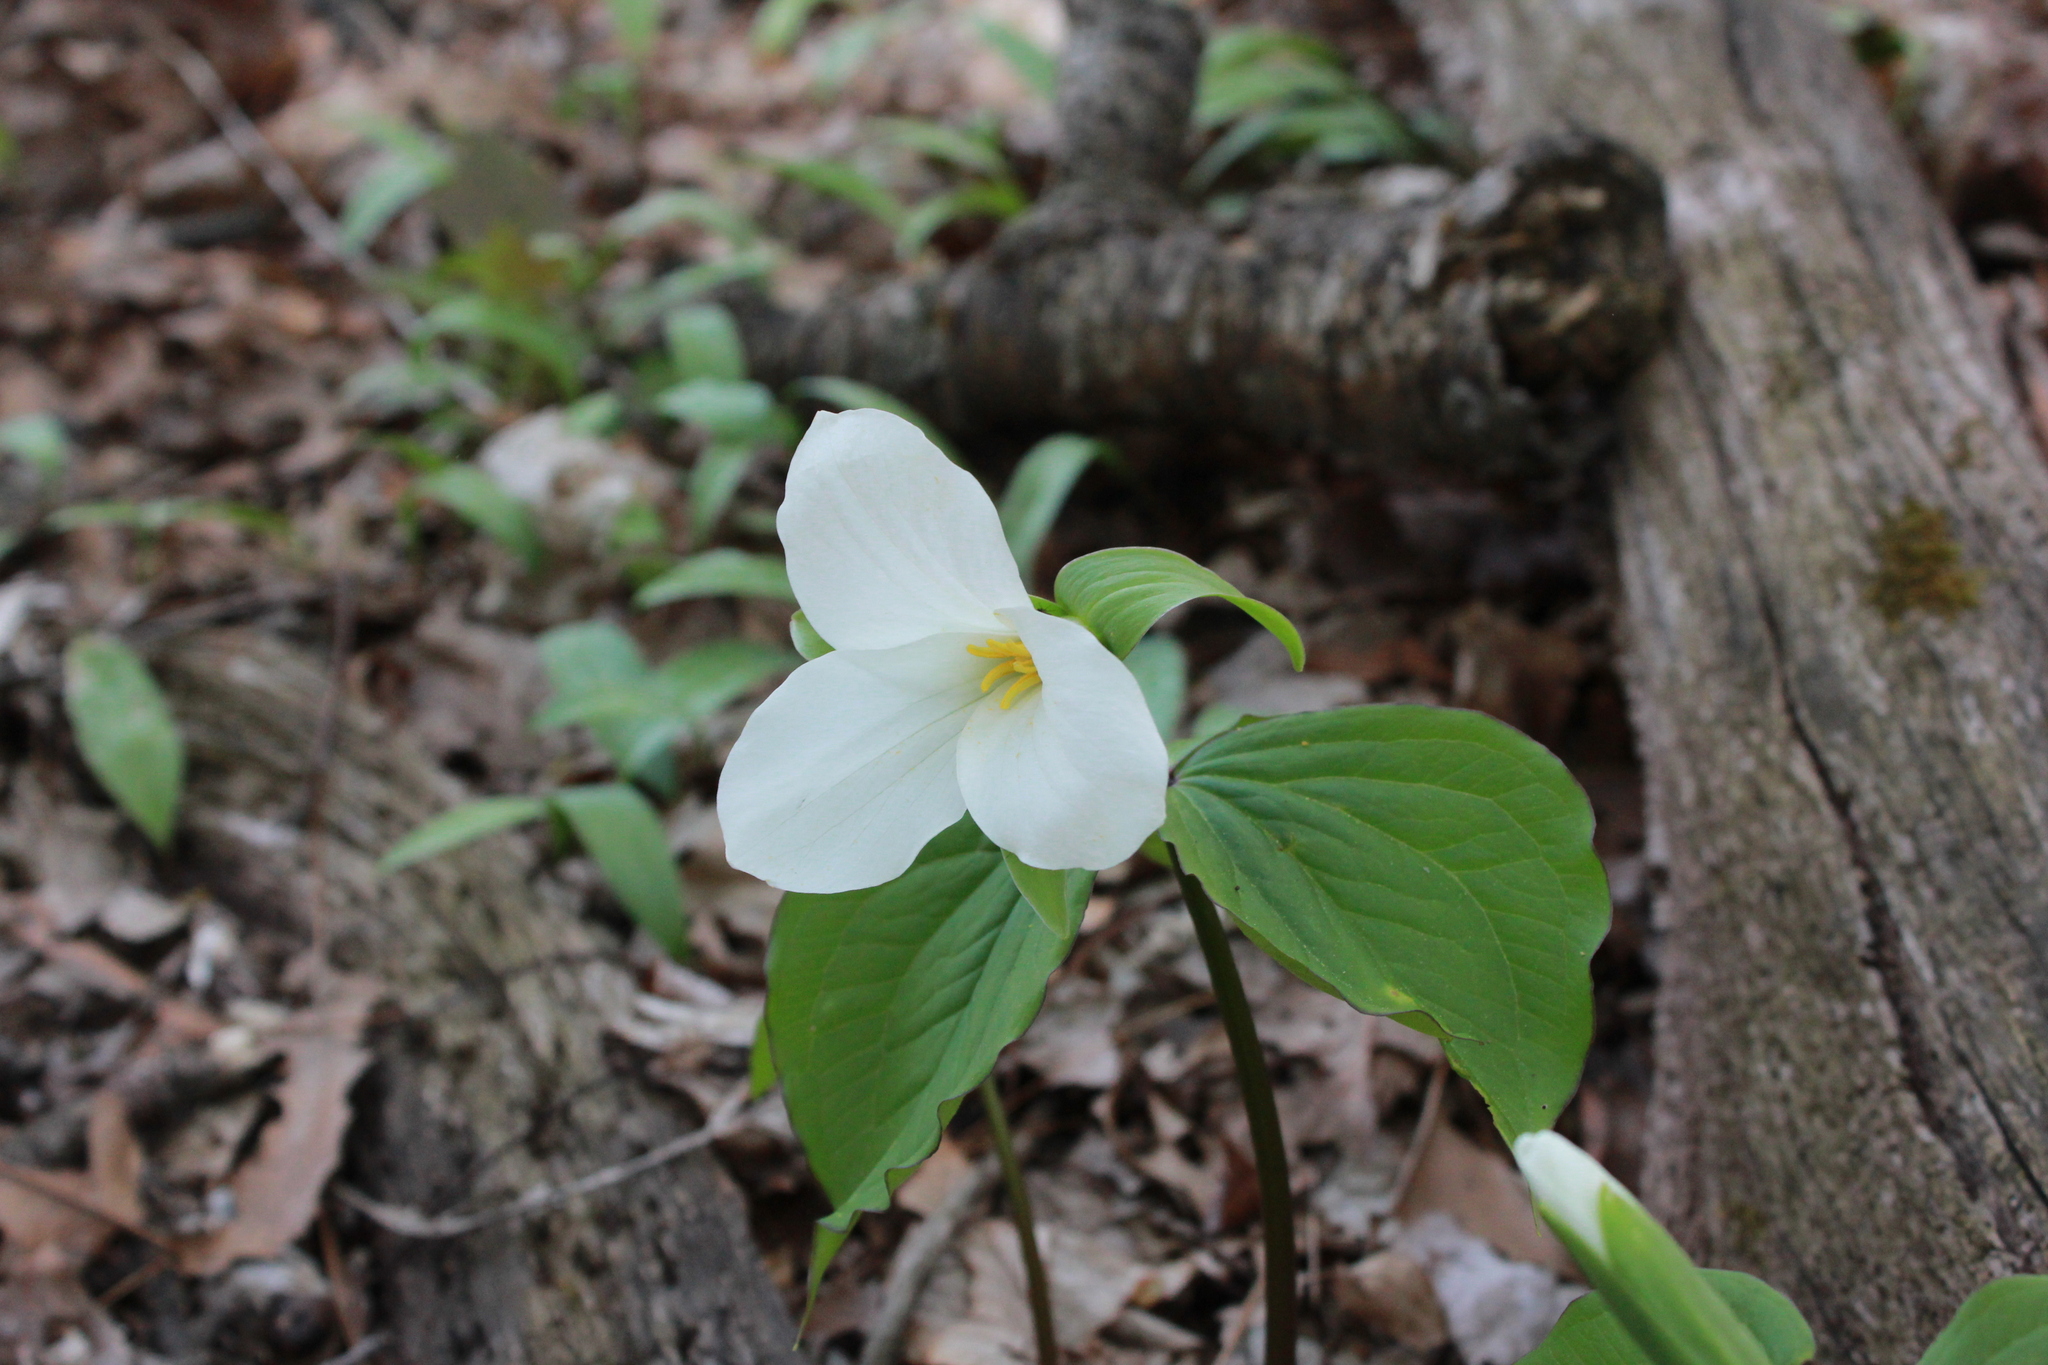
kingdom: Plantae
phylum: Tracheophyta
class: Liliopsida
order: Liliales
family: Melanthiaceae
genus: Trillium
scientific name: Trillium grandiflorum
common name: Great white trillium
